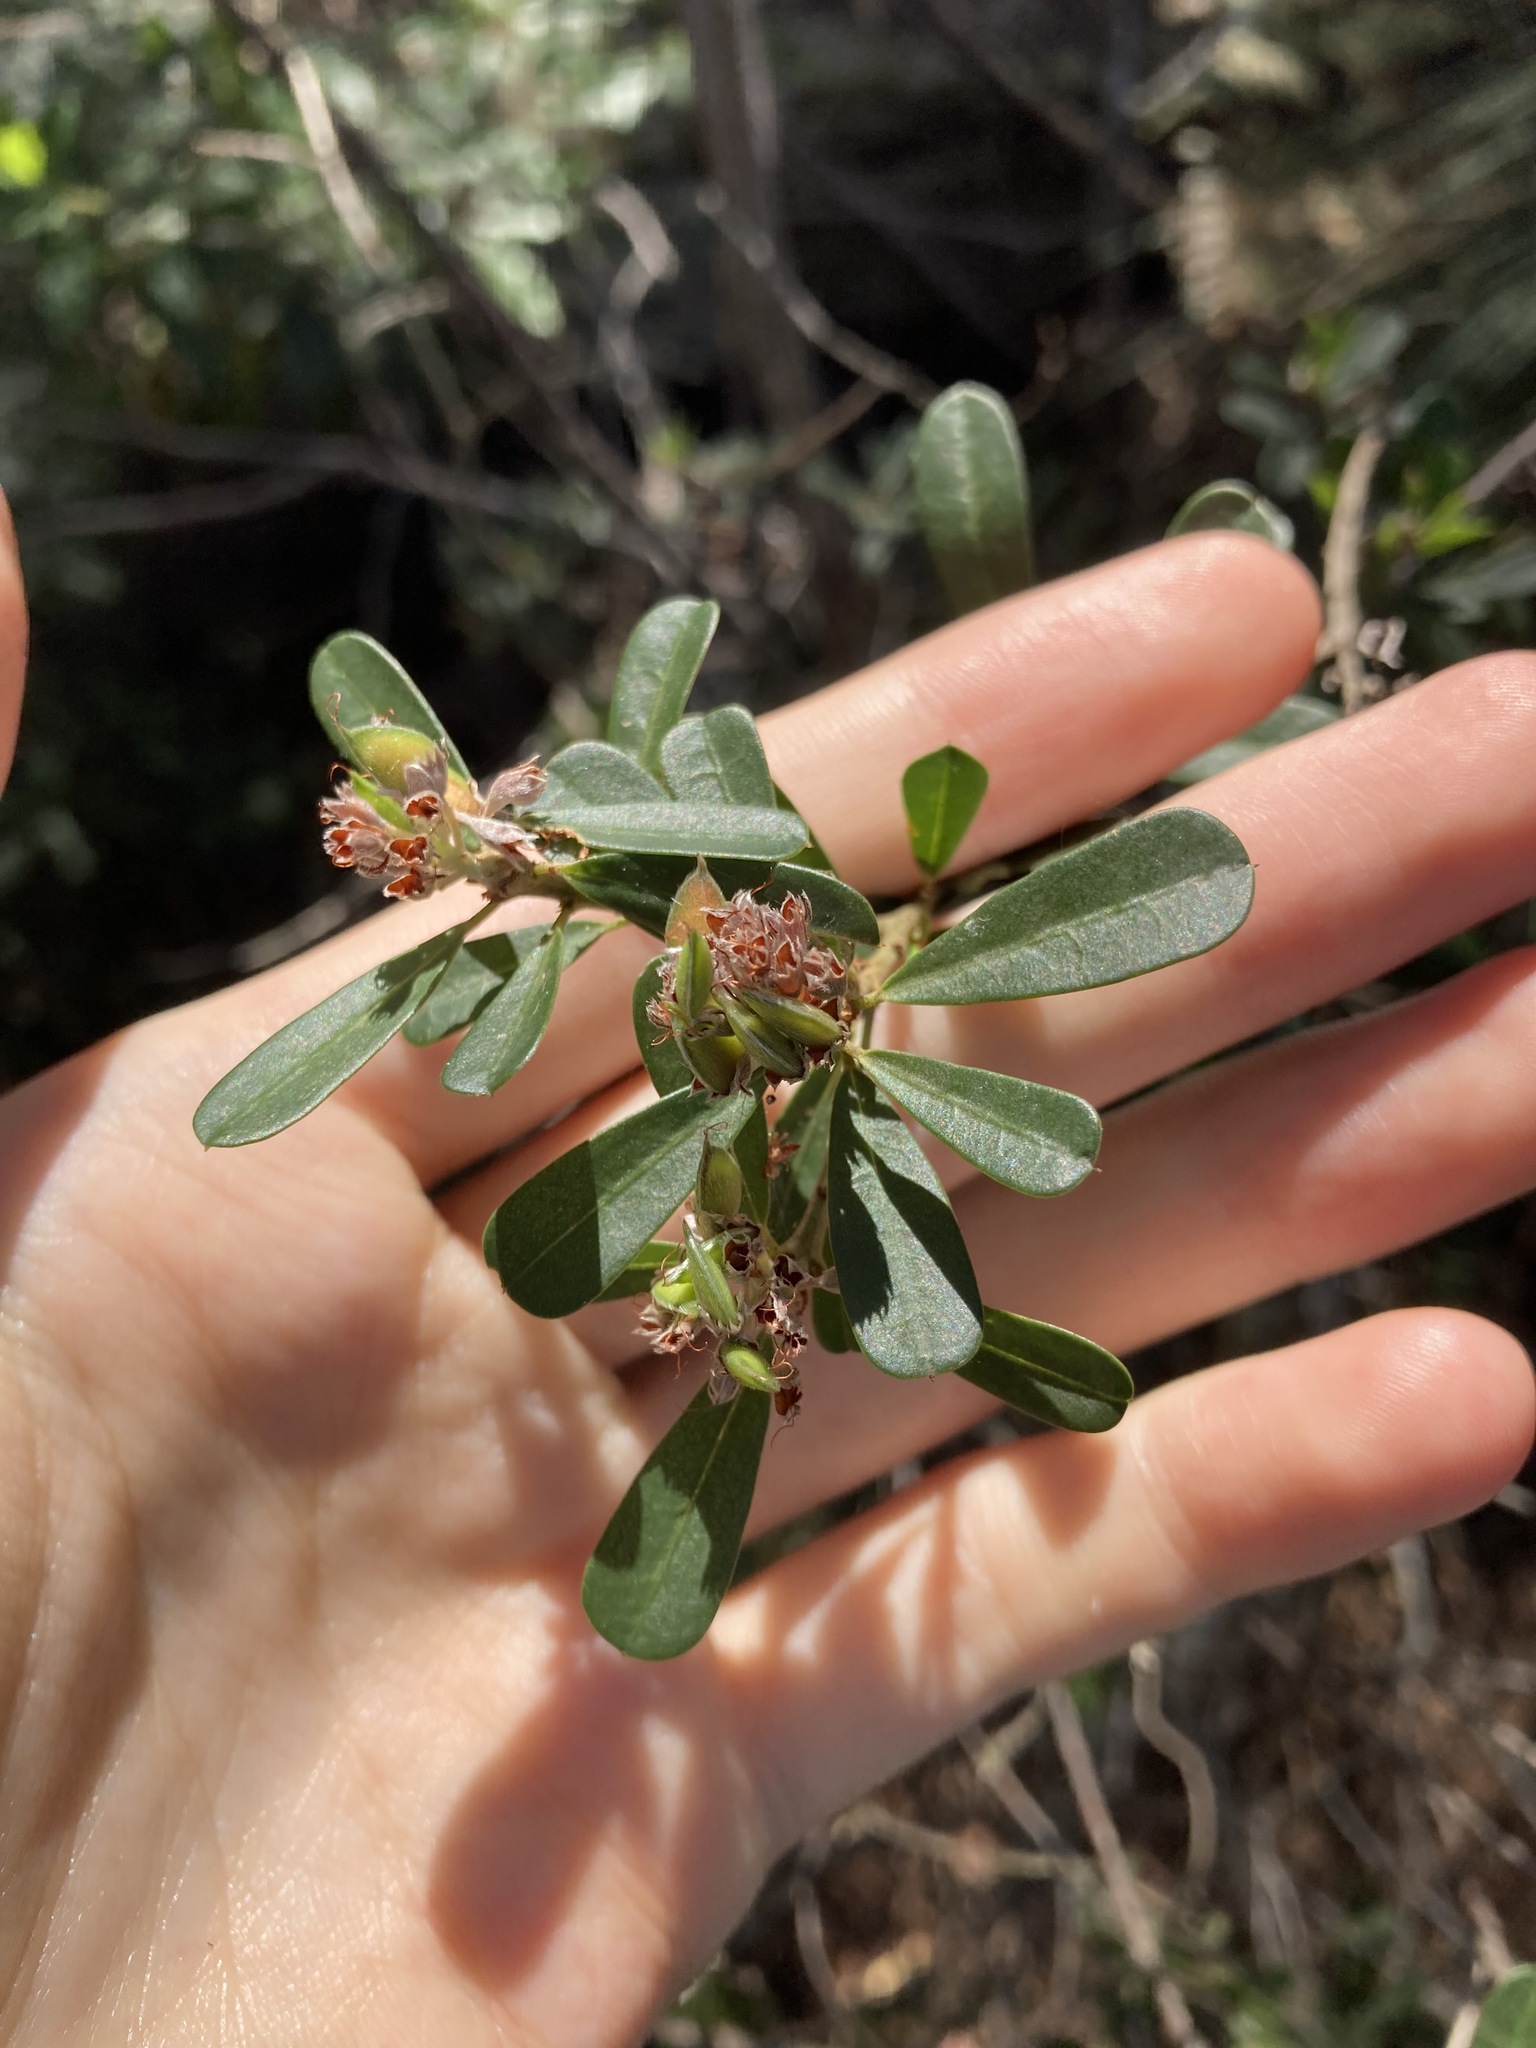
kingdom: Plantae
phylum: Tracheophyta
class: Magnoliopsida
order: Fabales
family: Fabaceae
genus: Pultenaea
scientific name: Pultenaea daphnoides
